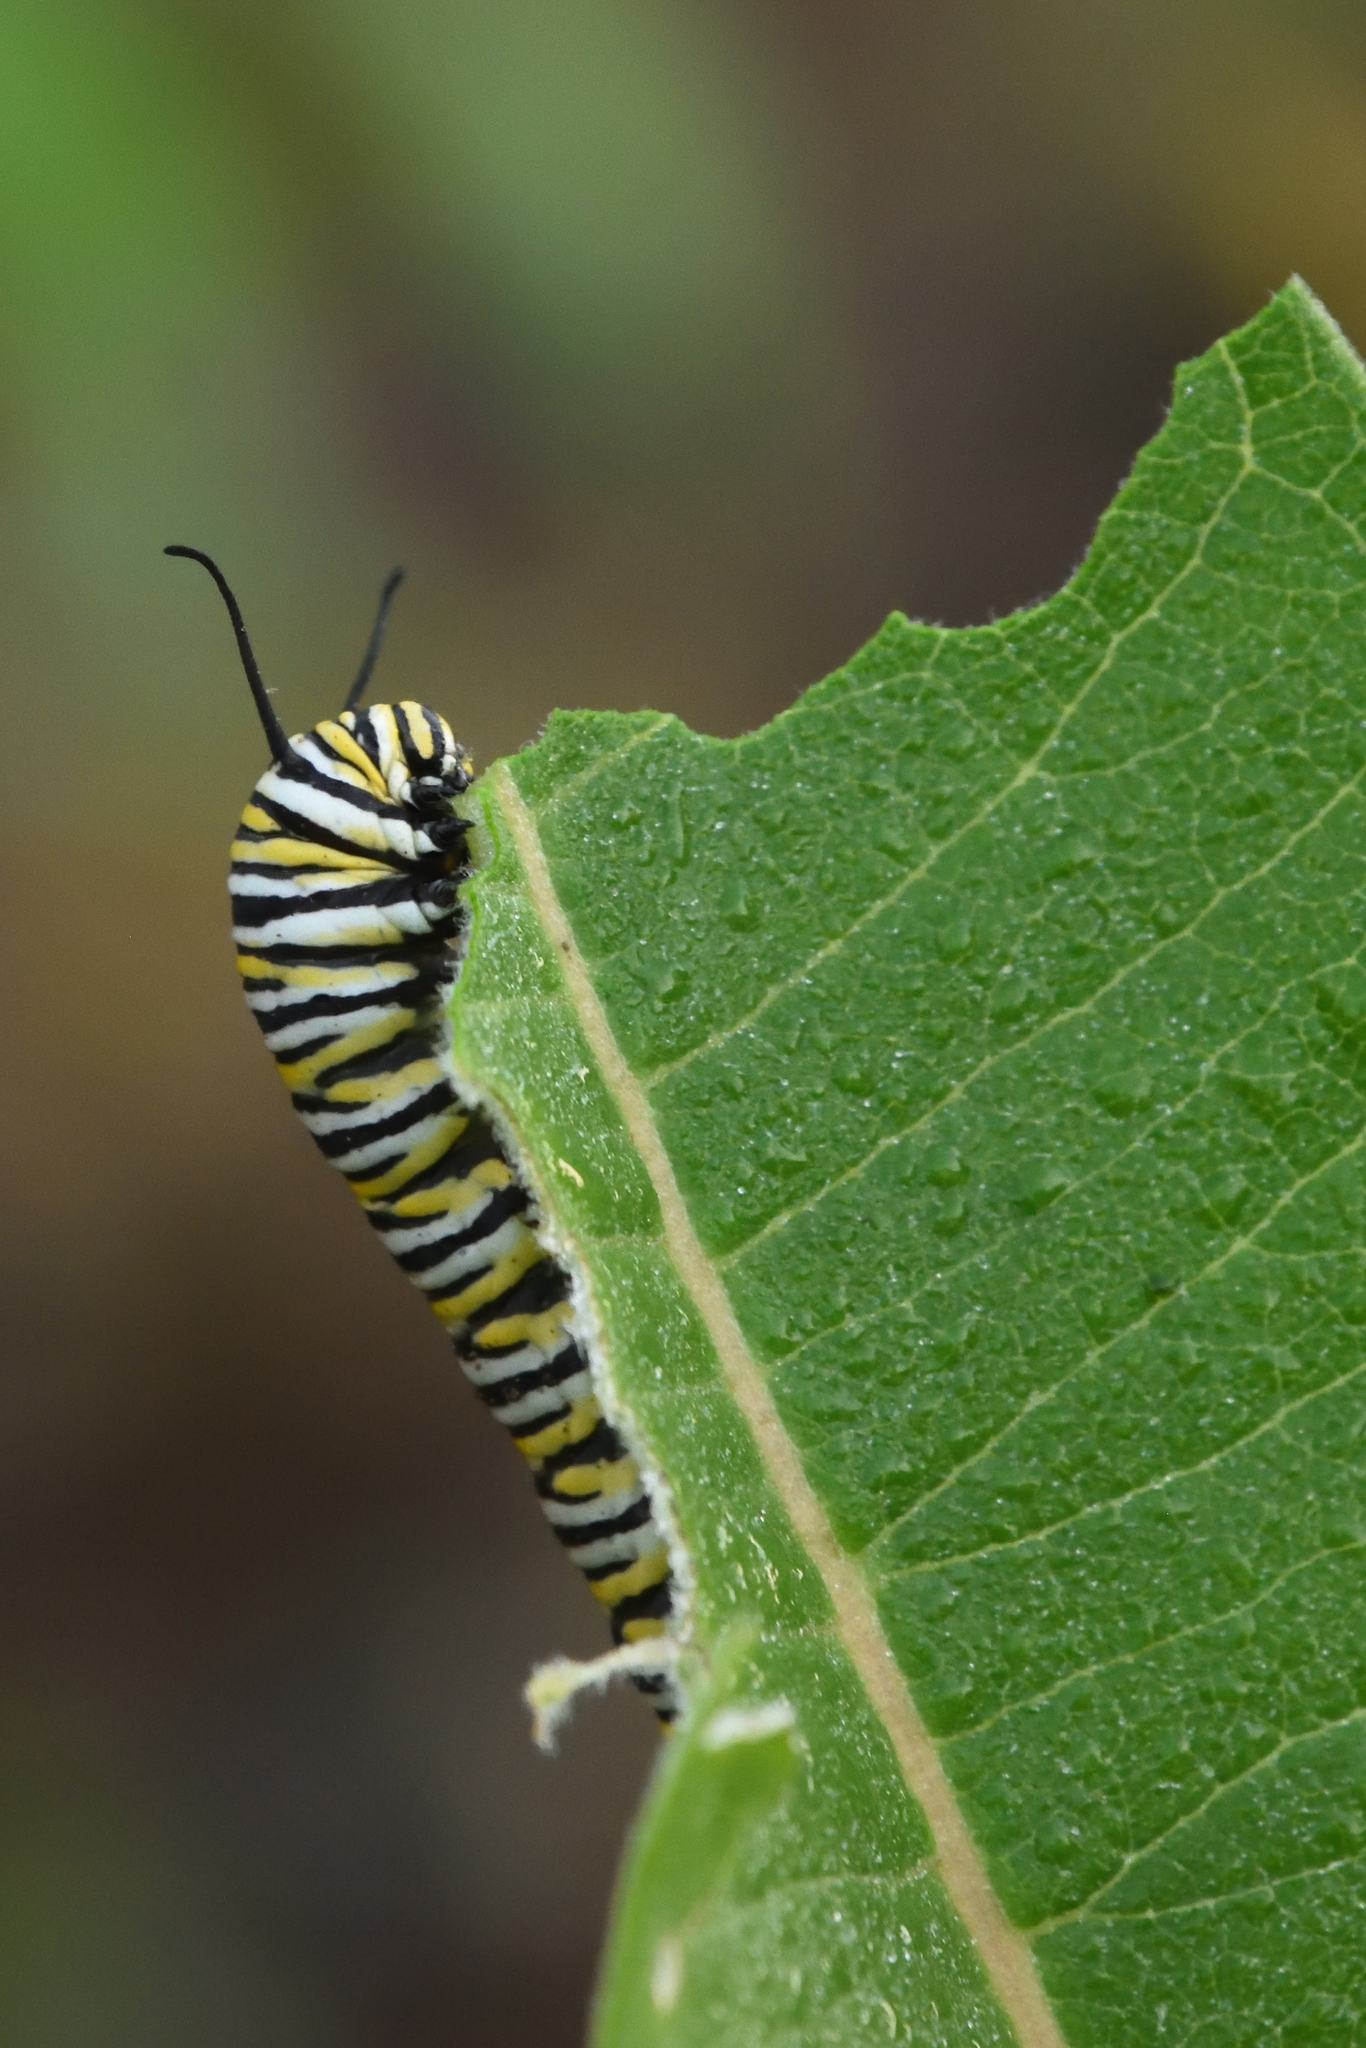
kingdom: Animalia
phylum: Arthropoda
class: Insecta
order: Lepidoptera
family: Nymphalidae
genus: Danaus
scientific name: Danaus plexippus
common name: Monarch
